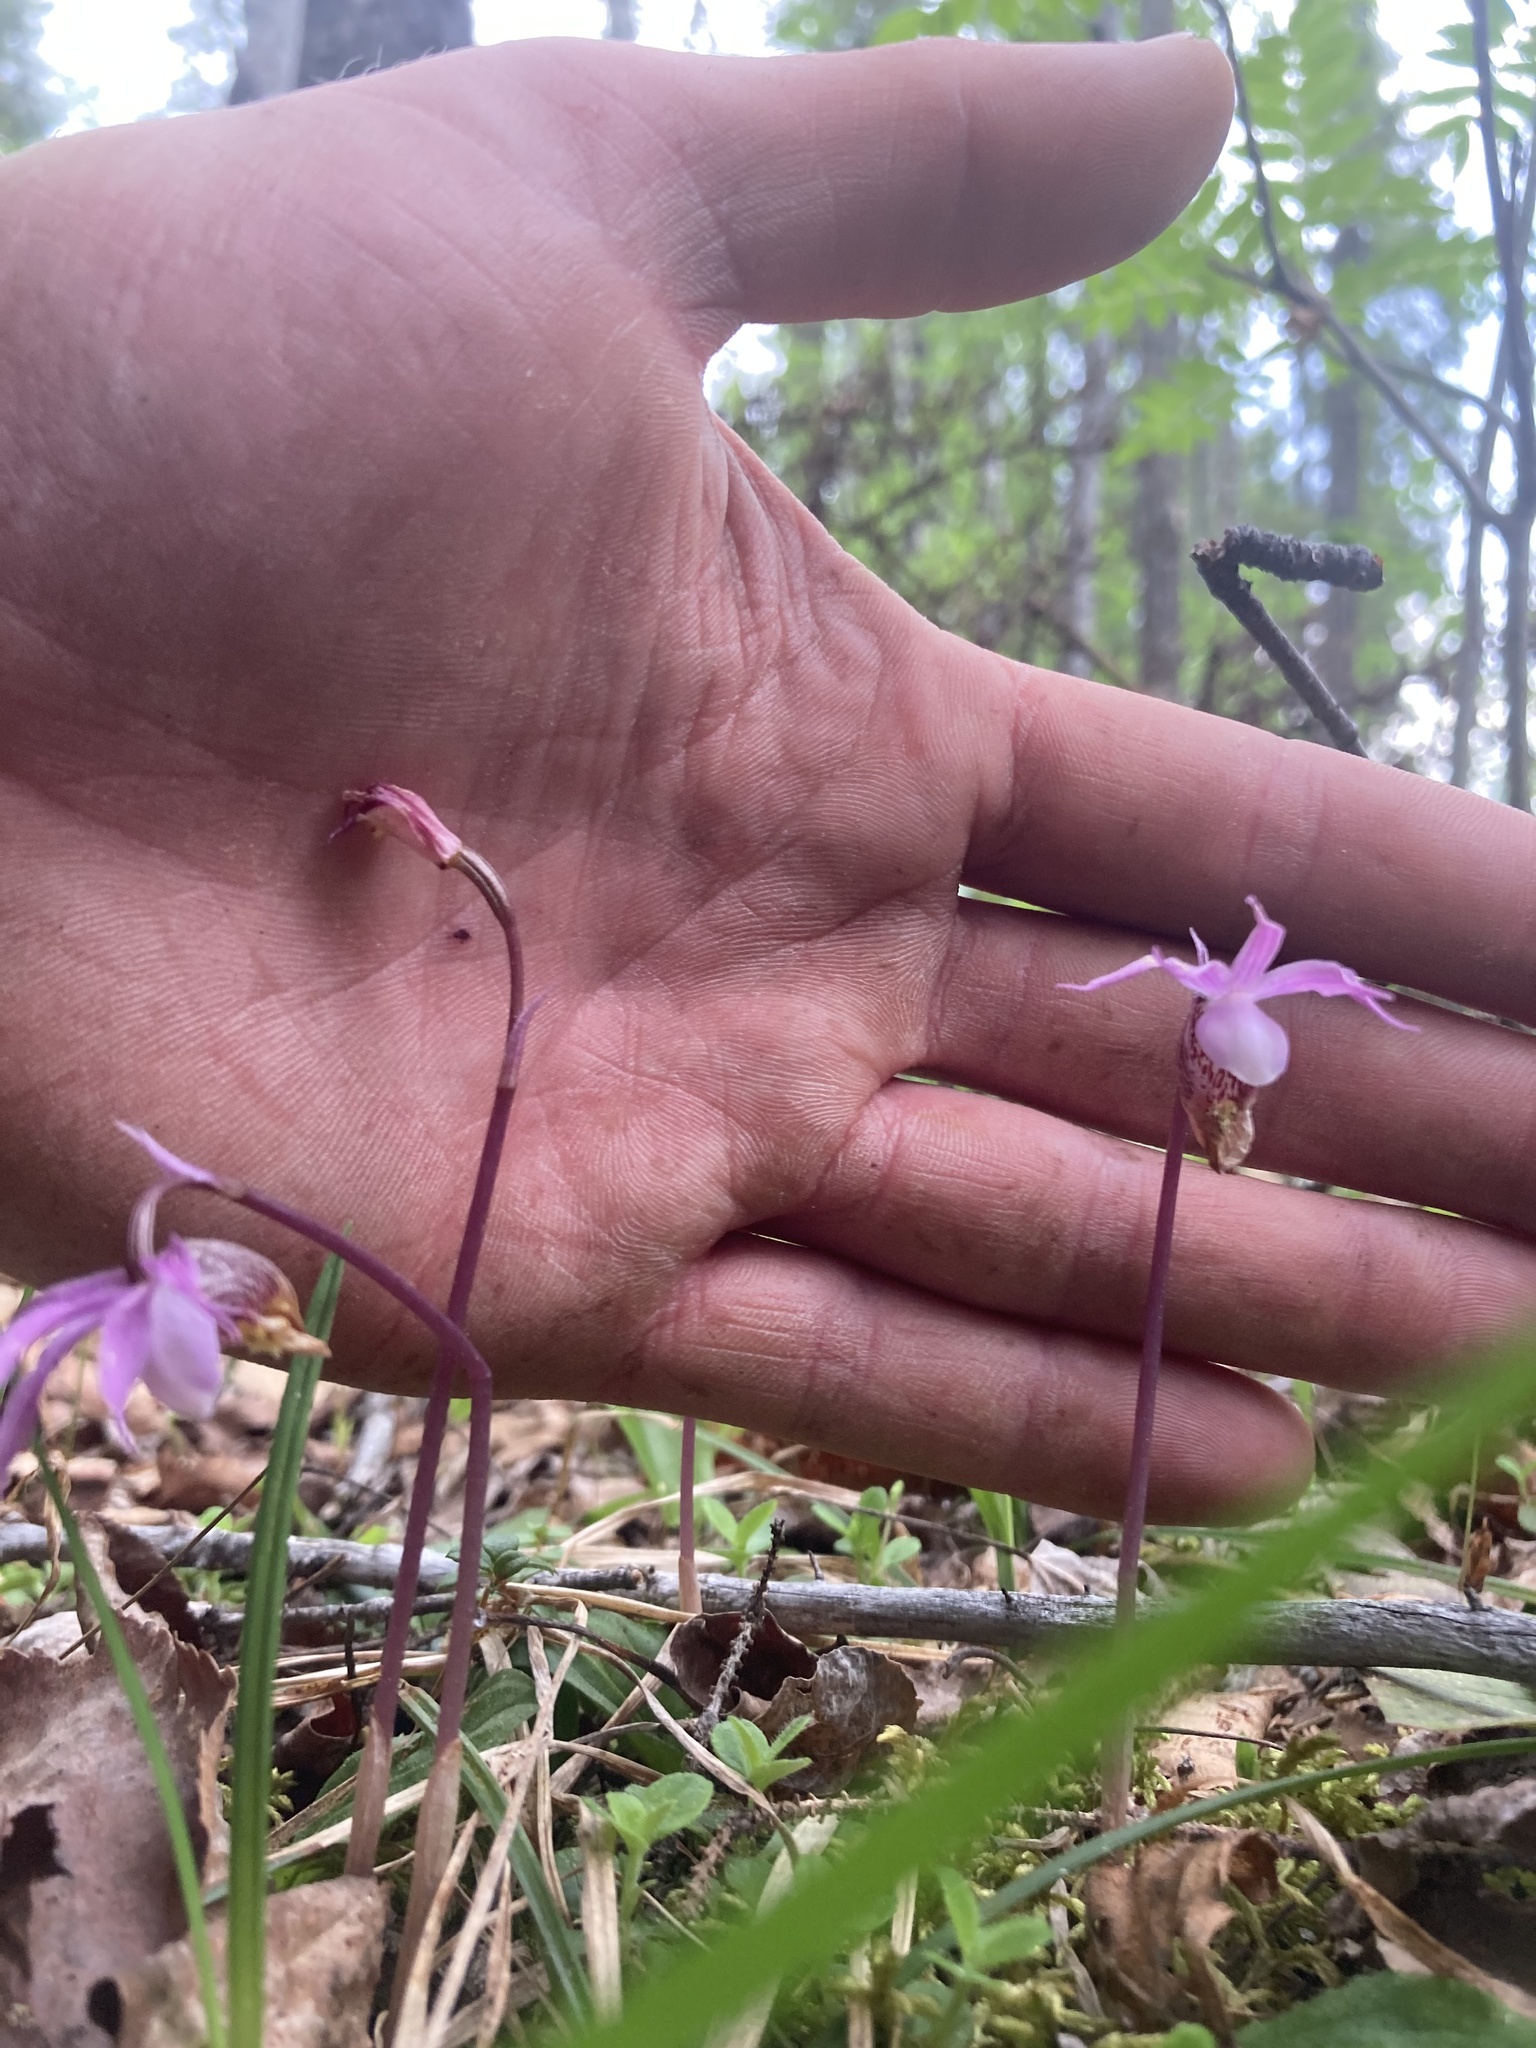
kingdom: Plantae
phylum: Tracheophyta
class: Liliopsida
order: Asparagales
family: Orchidaceae
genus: Calypso
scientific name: Calypso bulbosa
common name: Calypso
